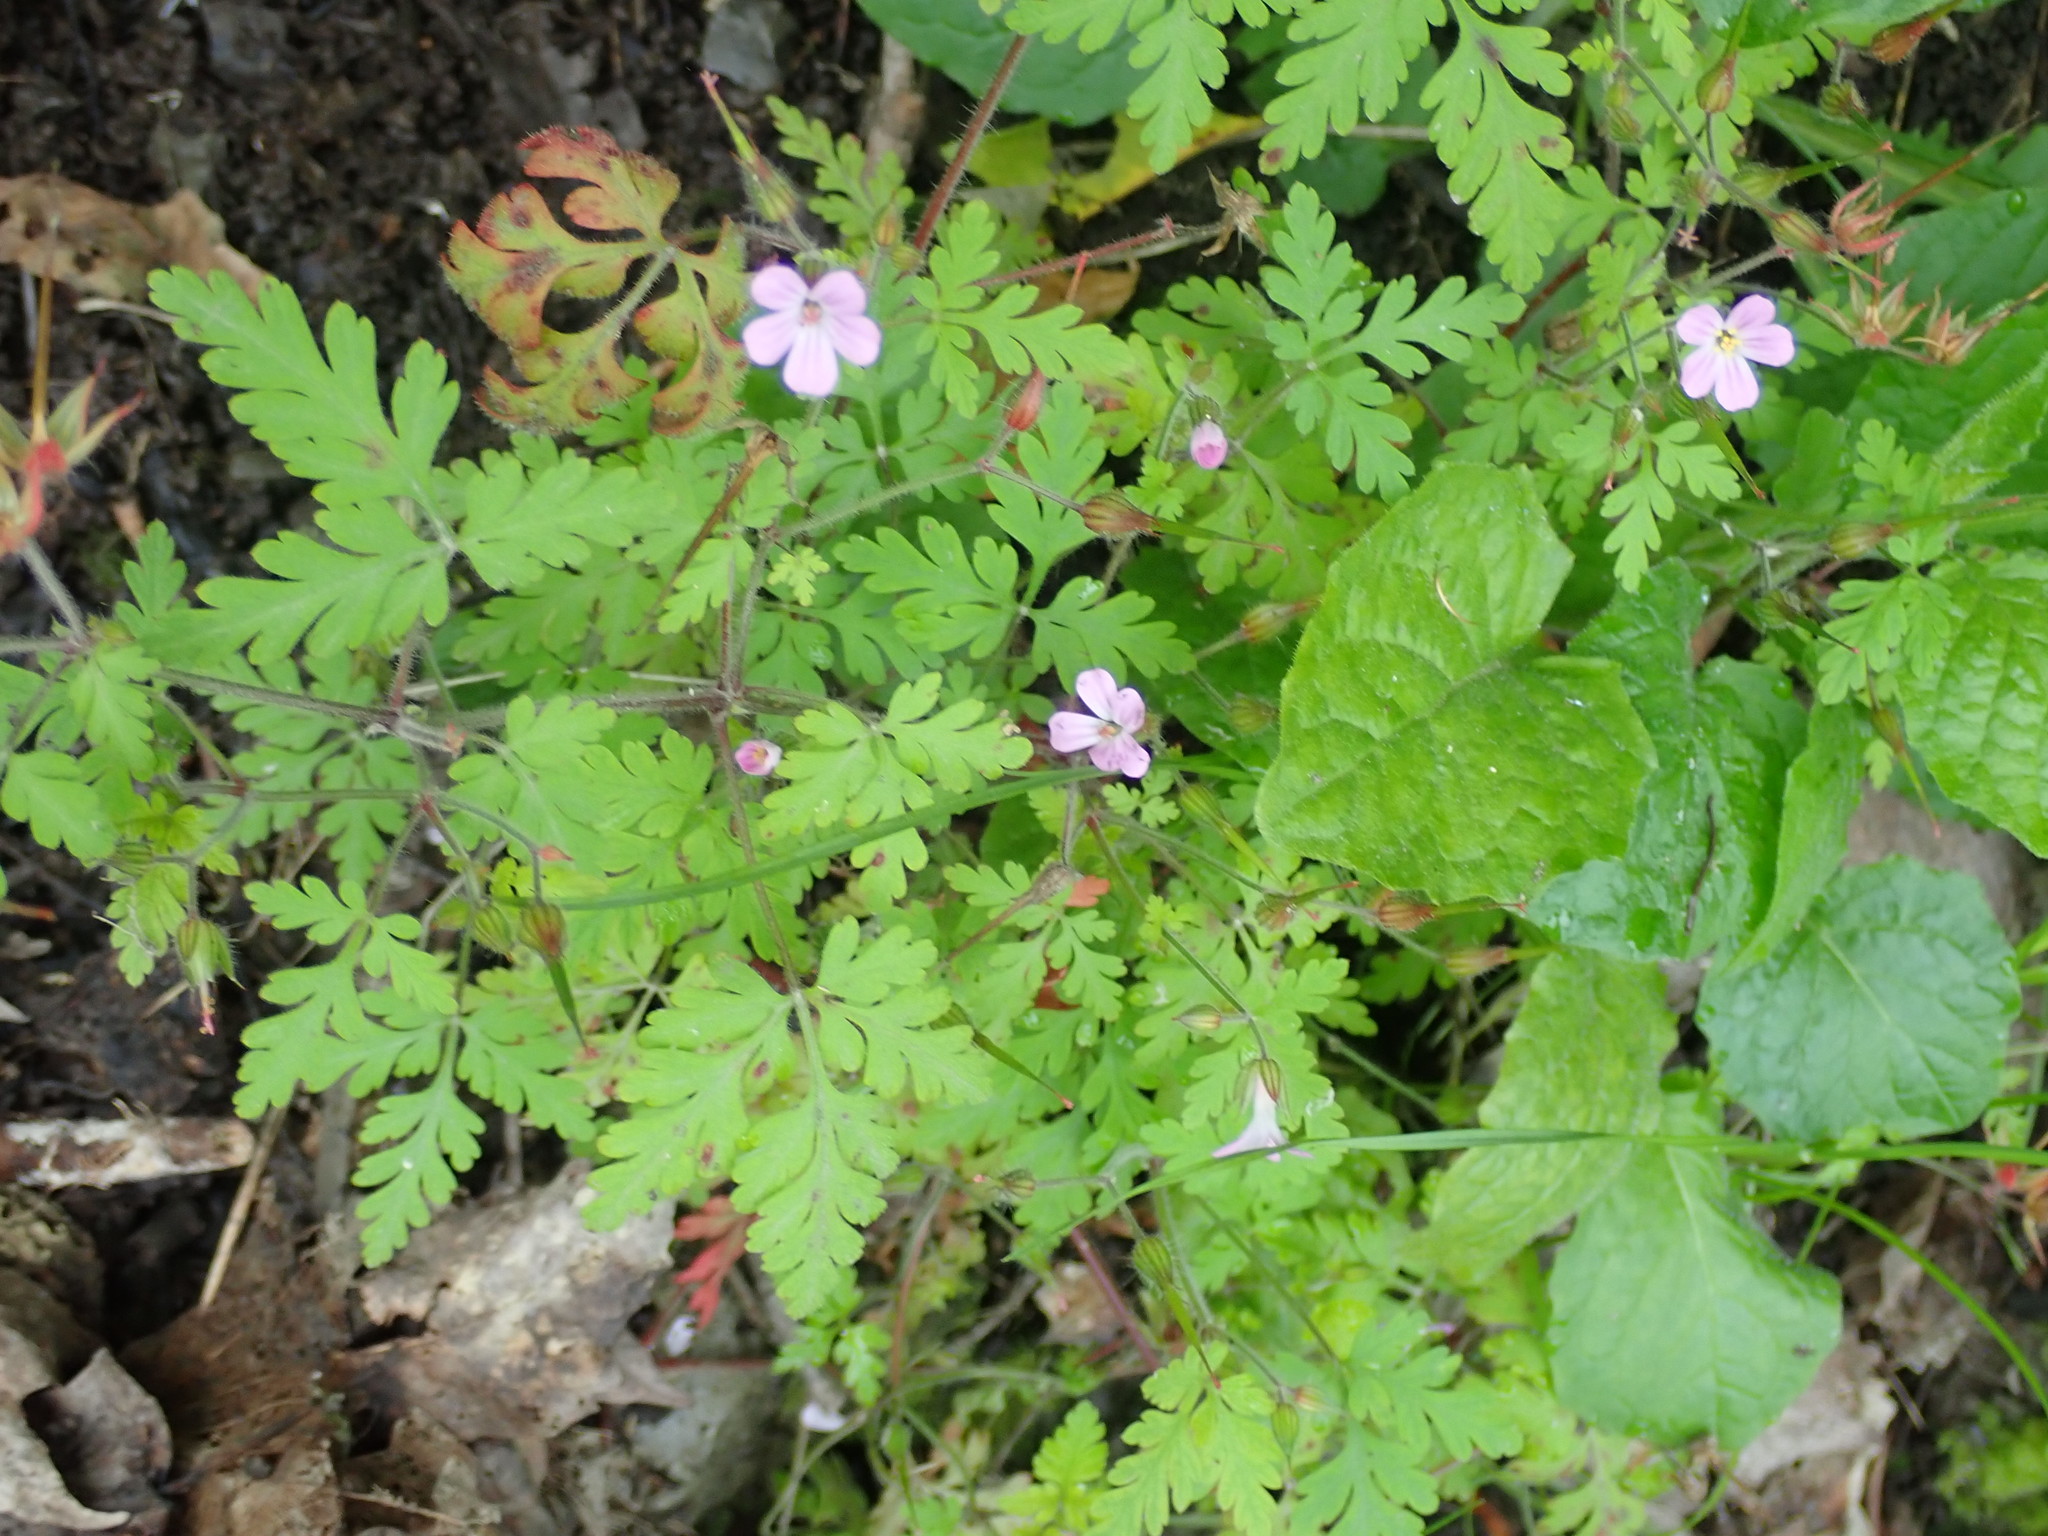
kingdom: Plantae
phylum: Tracheophyta
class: Magnoliopsida
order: Geraniales
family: Geraniaceae
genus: Geranium
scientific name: Geranium robertianum
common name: Herb-robert
